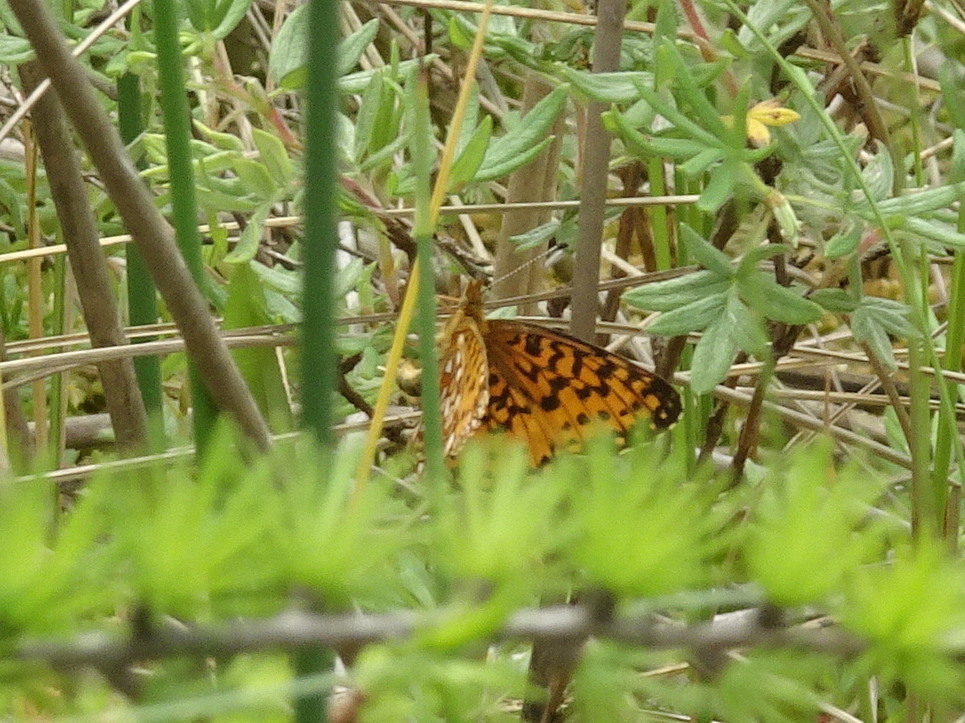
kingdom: Animalia
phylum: Arthropoda
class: Insecta
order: Lepidoptera
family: Nymphalidae
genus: Boloria
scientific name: Boloria
